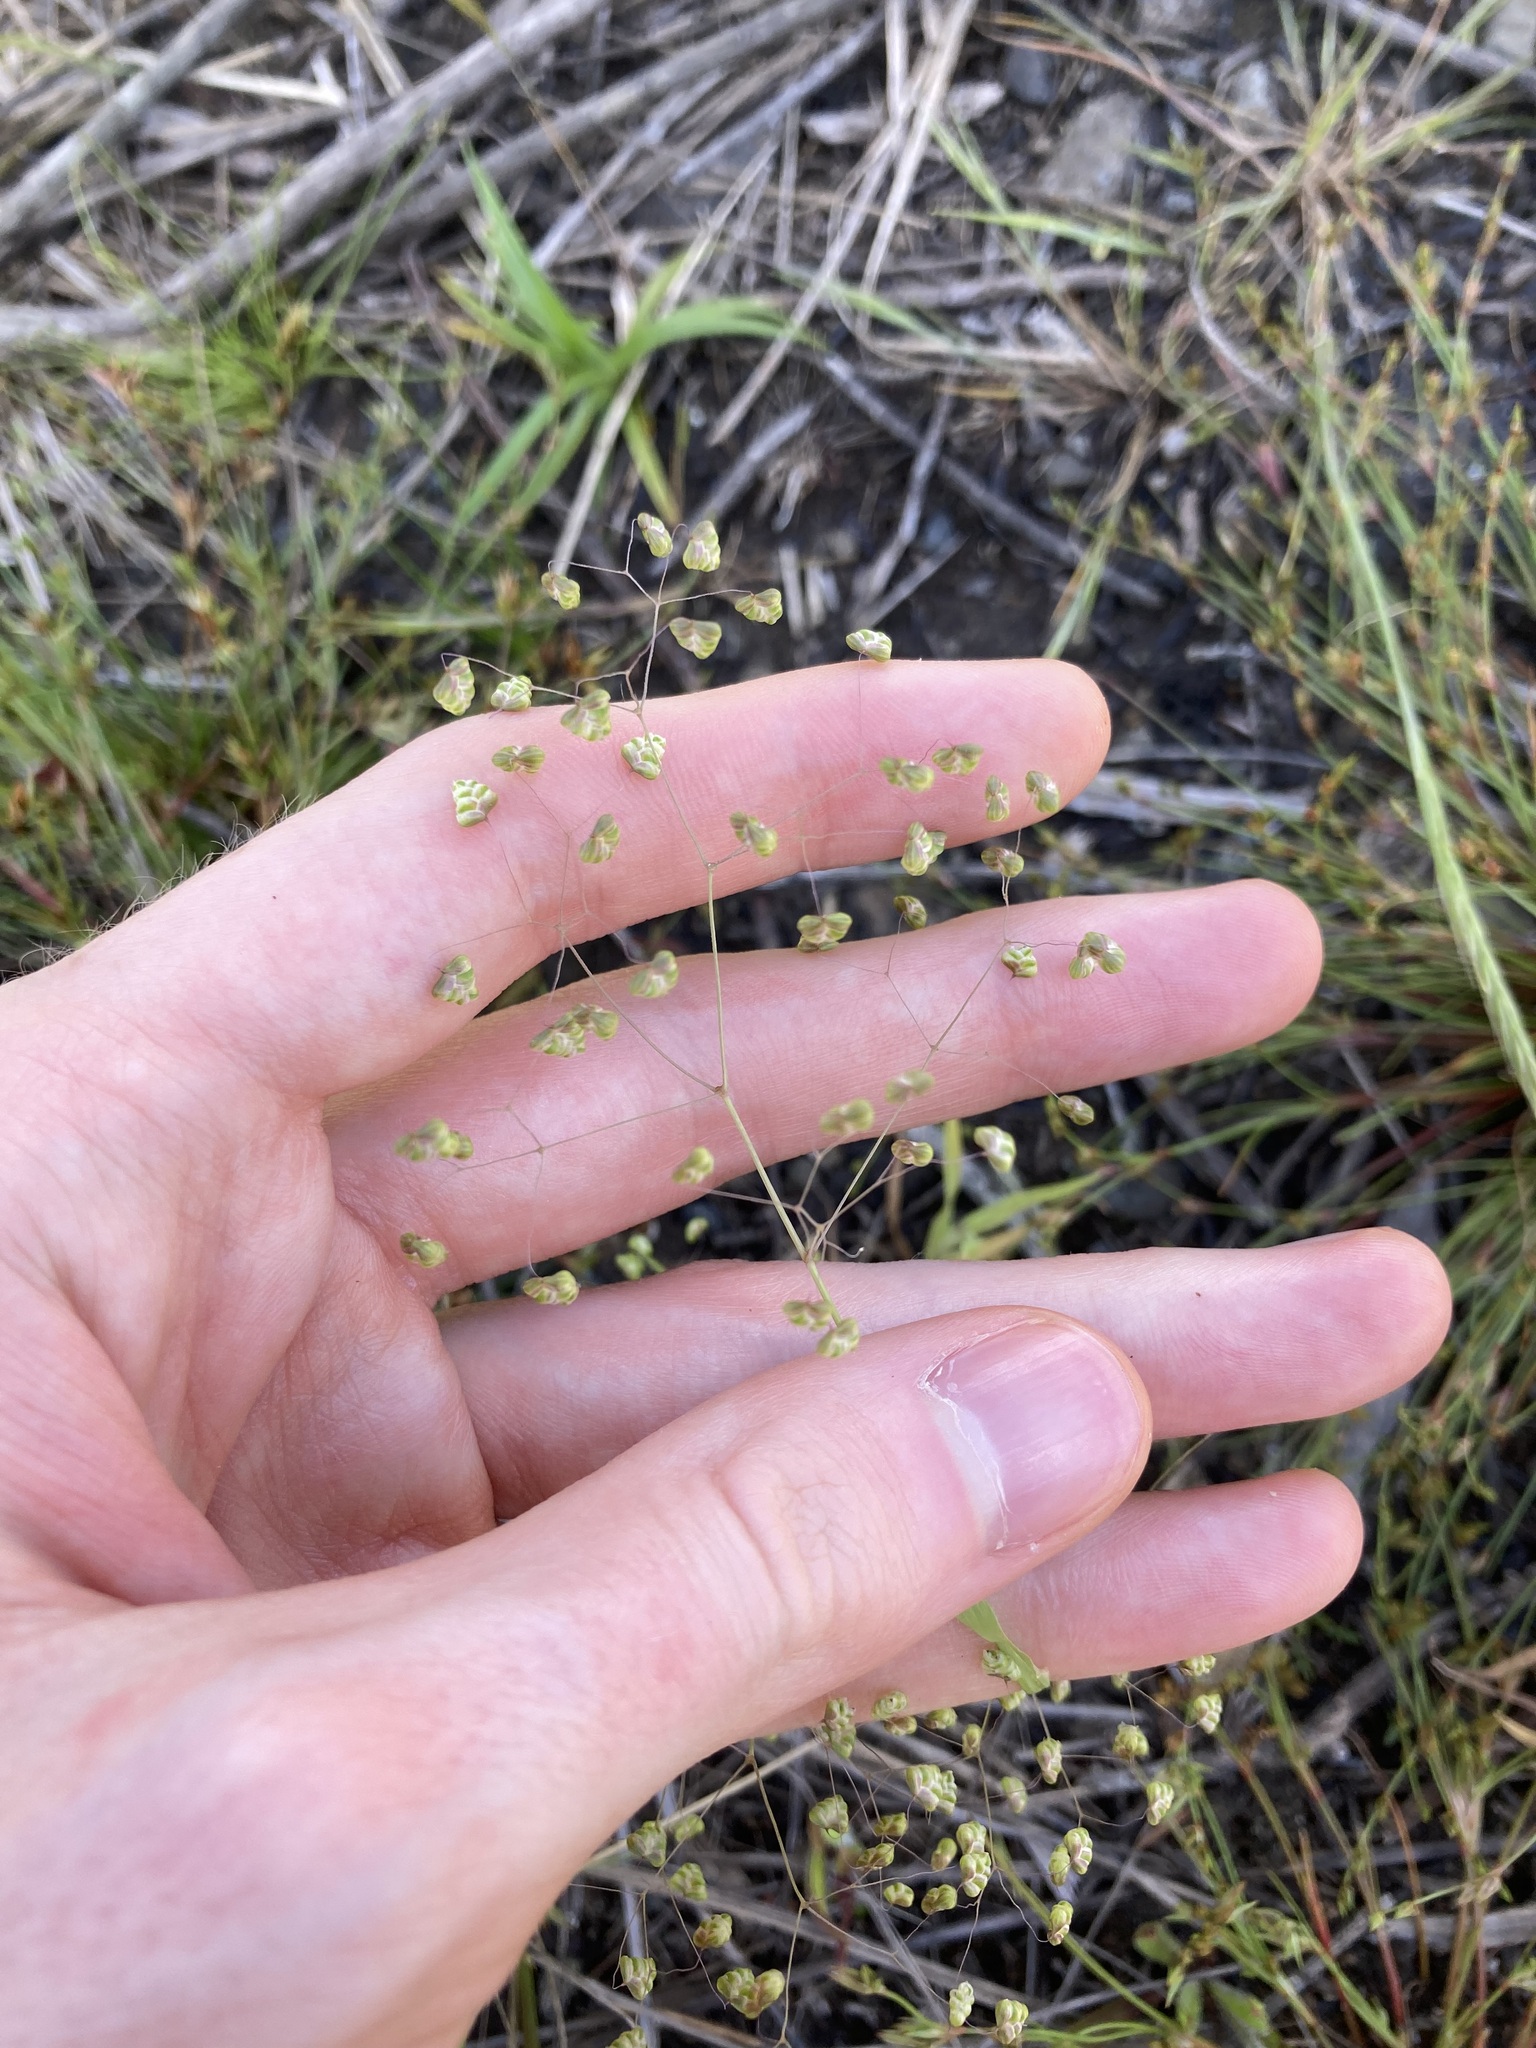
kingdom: Plantae
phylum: Tracheophyta
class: Liliopsida
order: Poales
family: Poaceae
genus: Briza
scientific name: Briza minor
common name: Lesser quaking-grass
